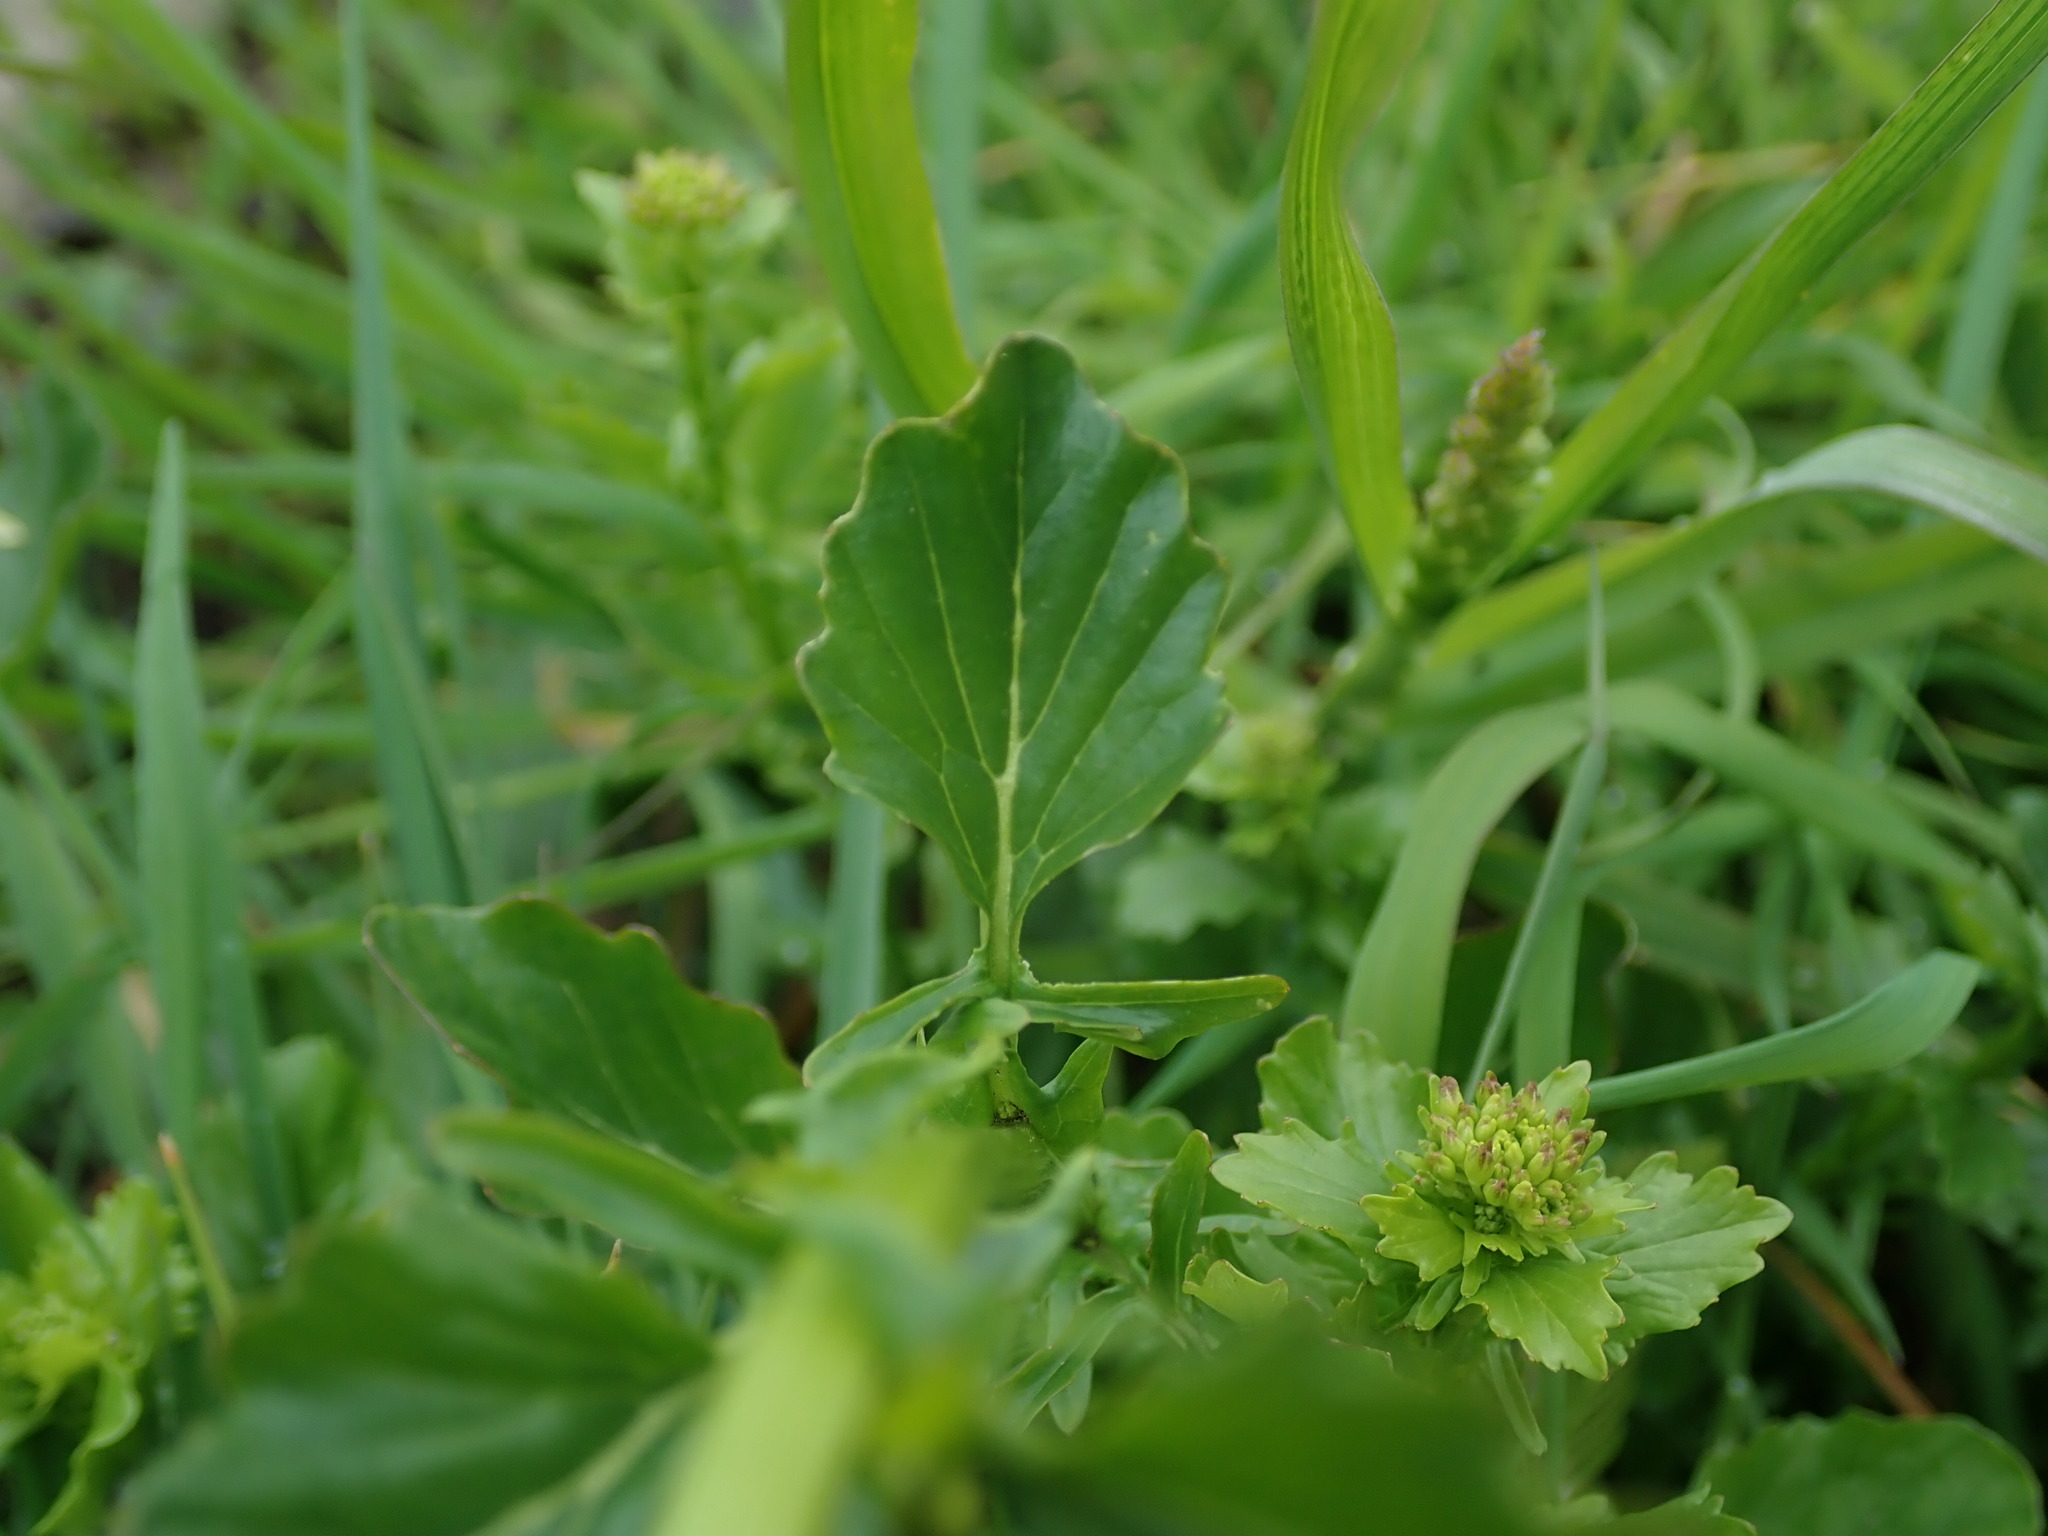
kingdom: Plantae
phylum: Tracheophyta
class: Magnoliopsida
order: Brassicales
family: Brassicaceae
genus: Barbarea
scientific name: Barbarea vulgaris
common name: Cressy-greens
